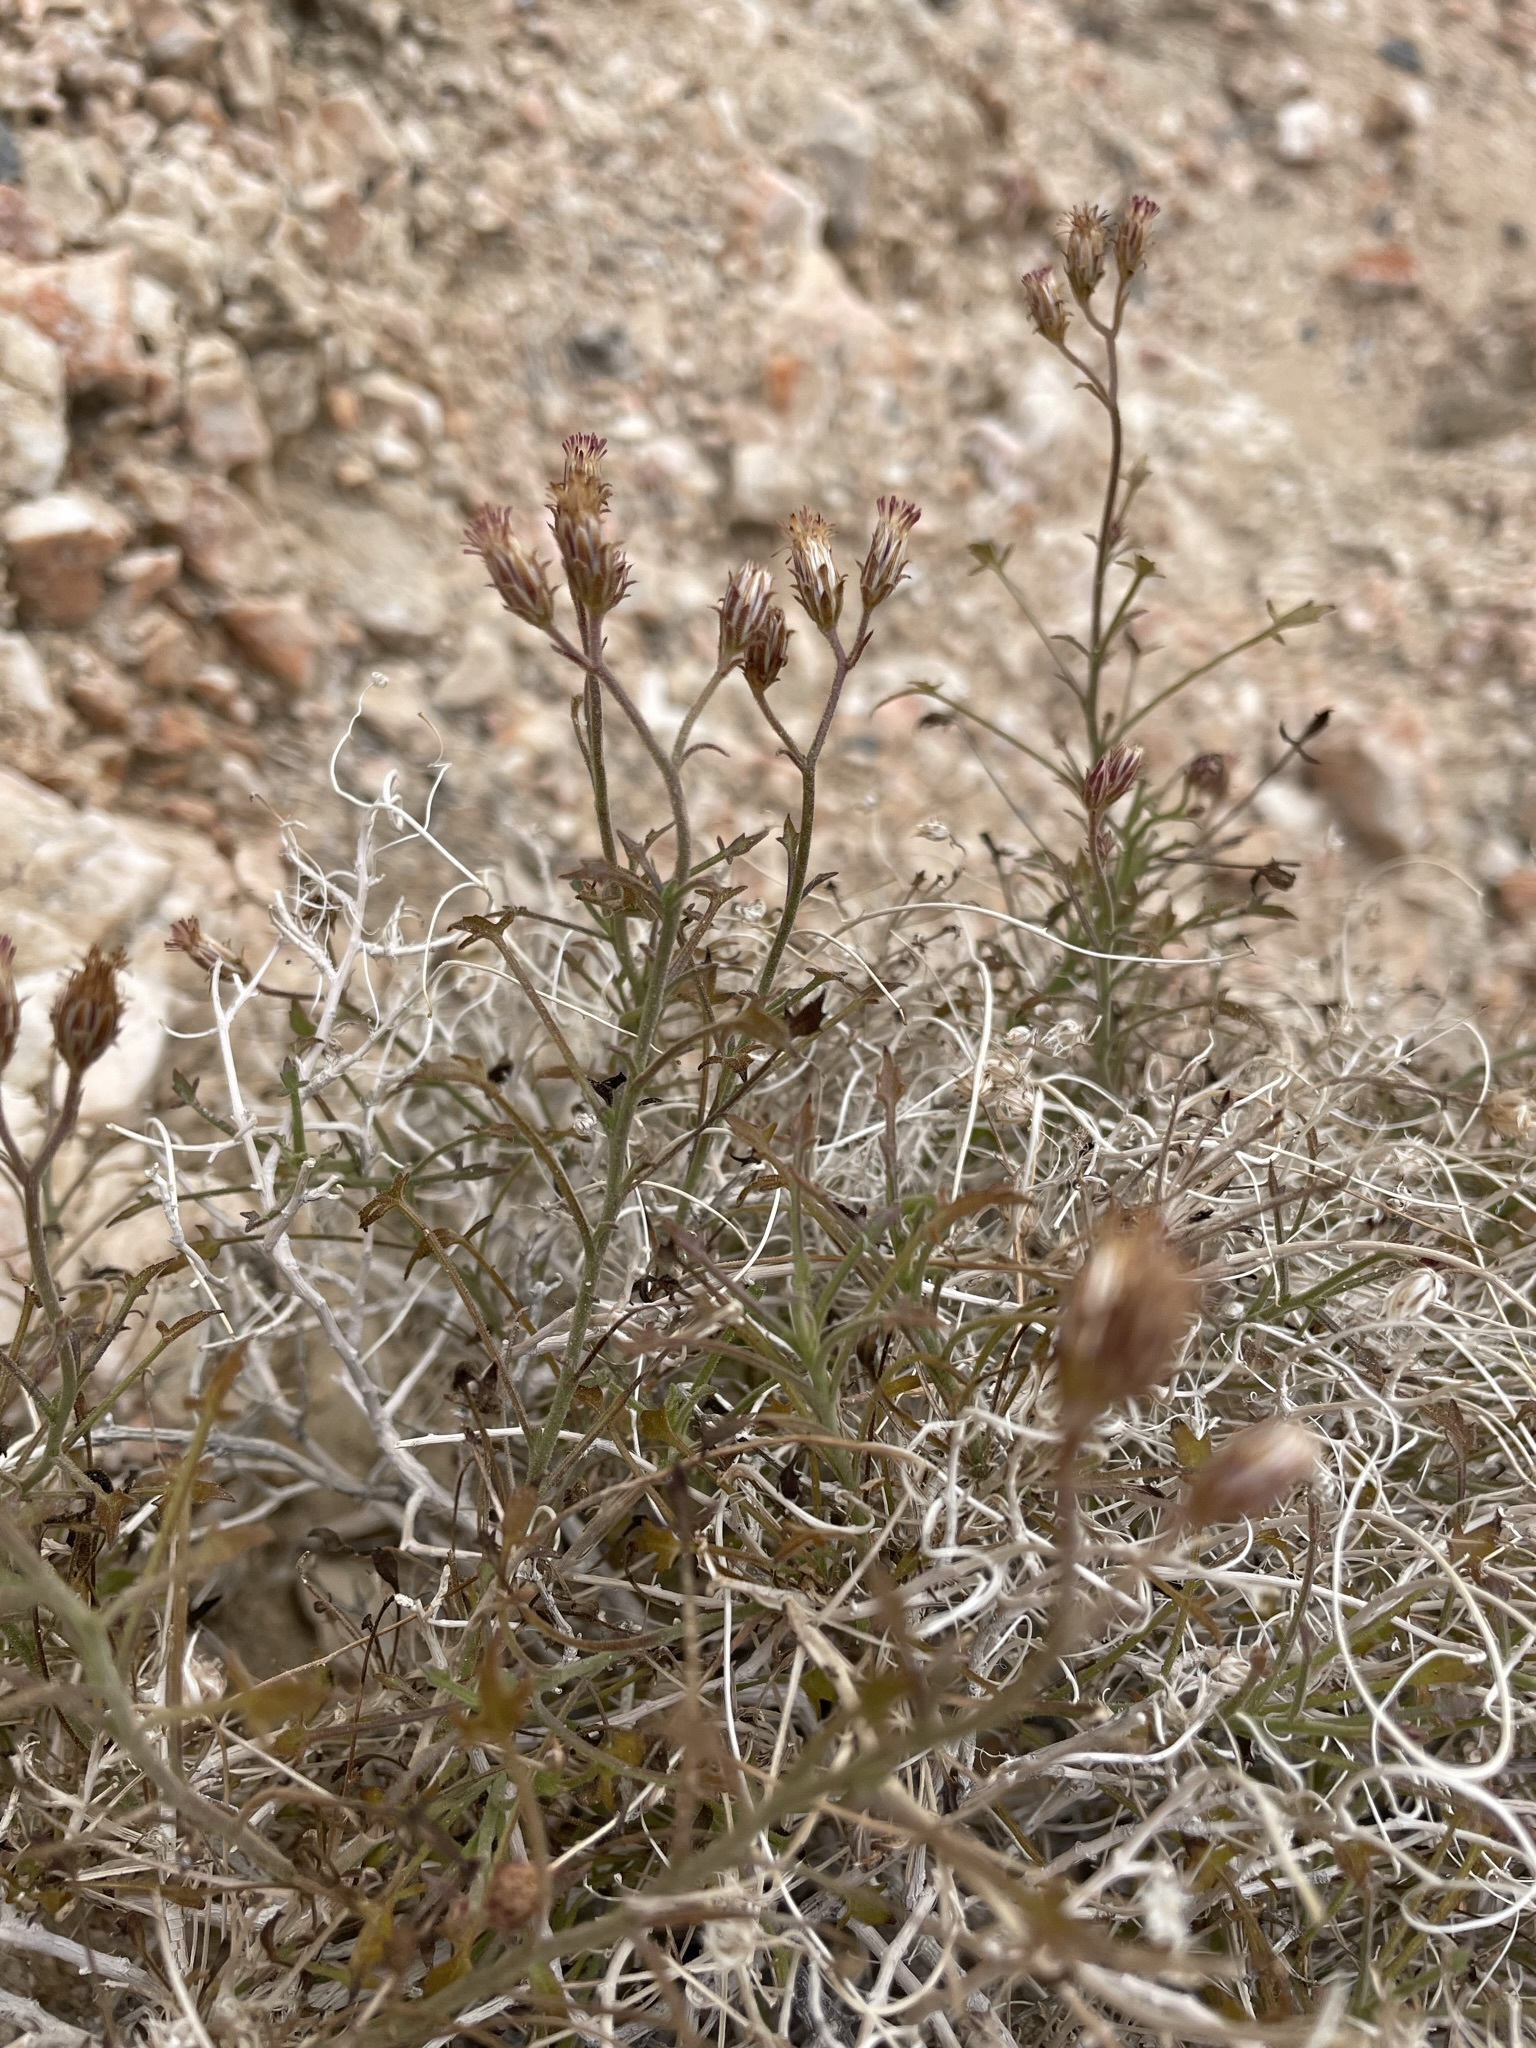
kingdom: Plantae
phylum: Tracheophyta
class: Magnoliopsida
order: Asterales
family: Asteraceae
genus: Pleurocoronis
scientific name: Pleurocoronis pluriseta
